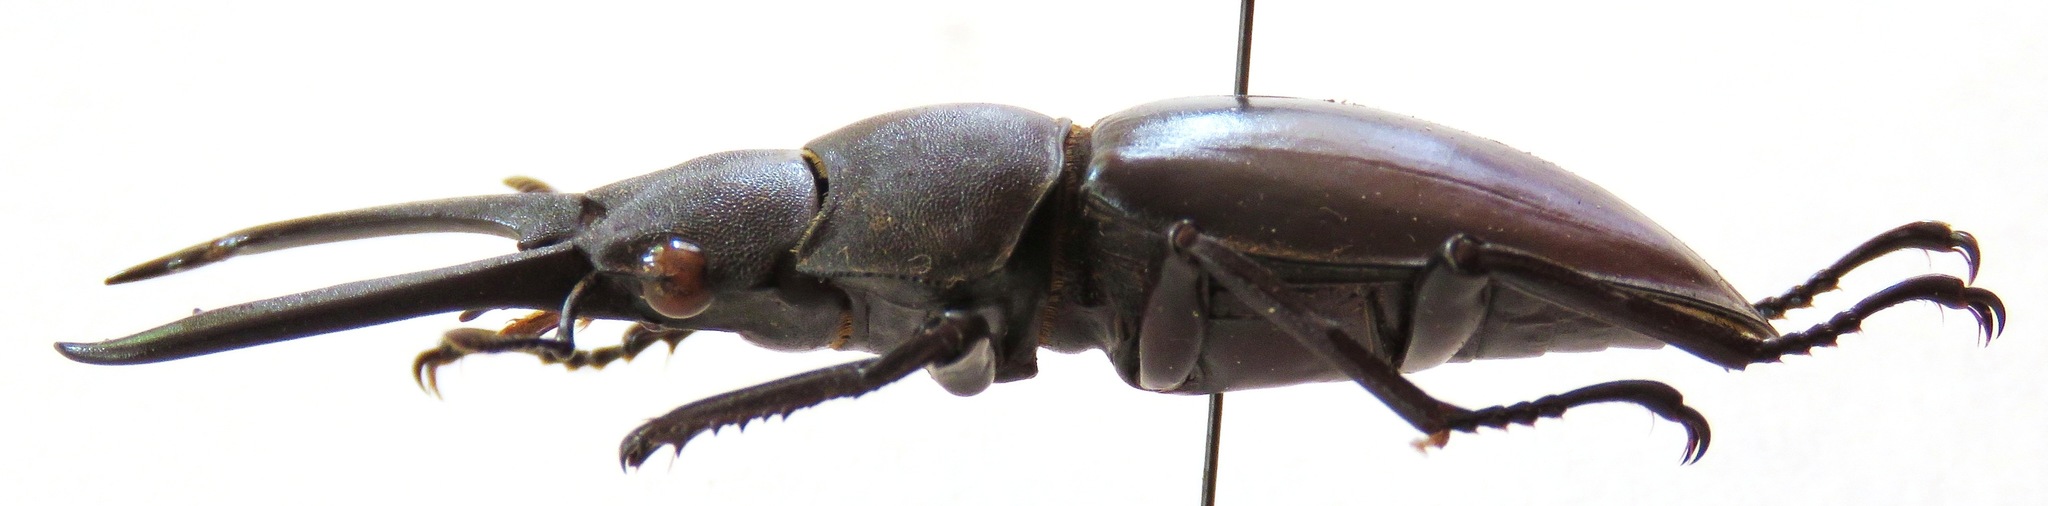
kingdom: Animalia
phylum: Arthropoda
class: Insecta
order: Coleoptera
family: Lucanidae
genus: Hexarthrius
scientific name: Hexarthrius vitalisi
